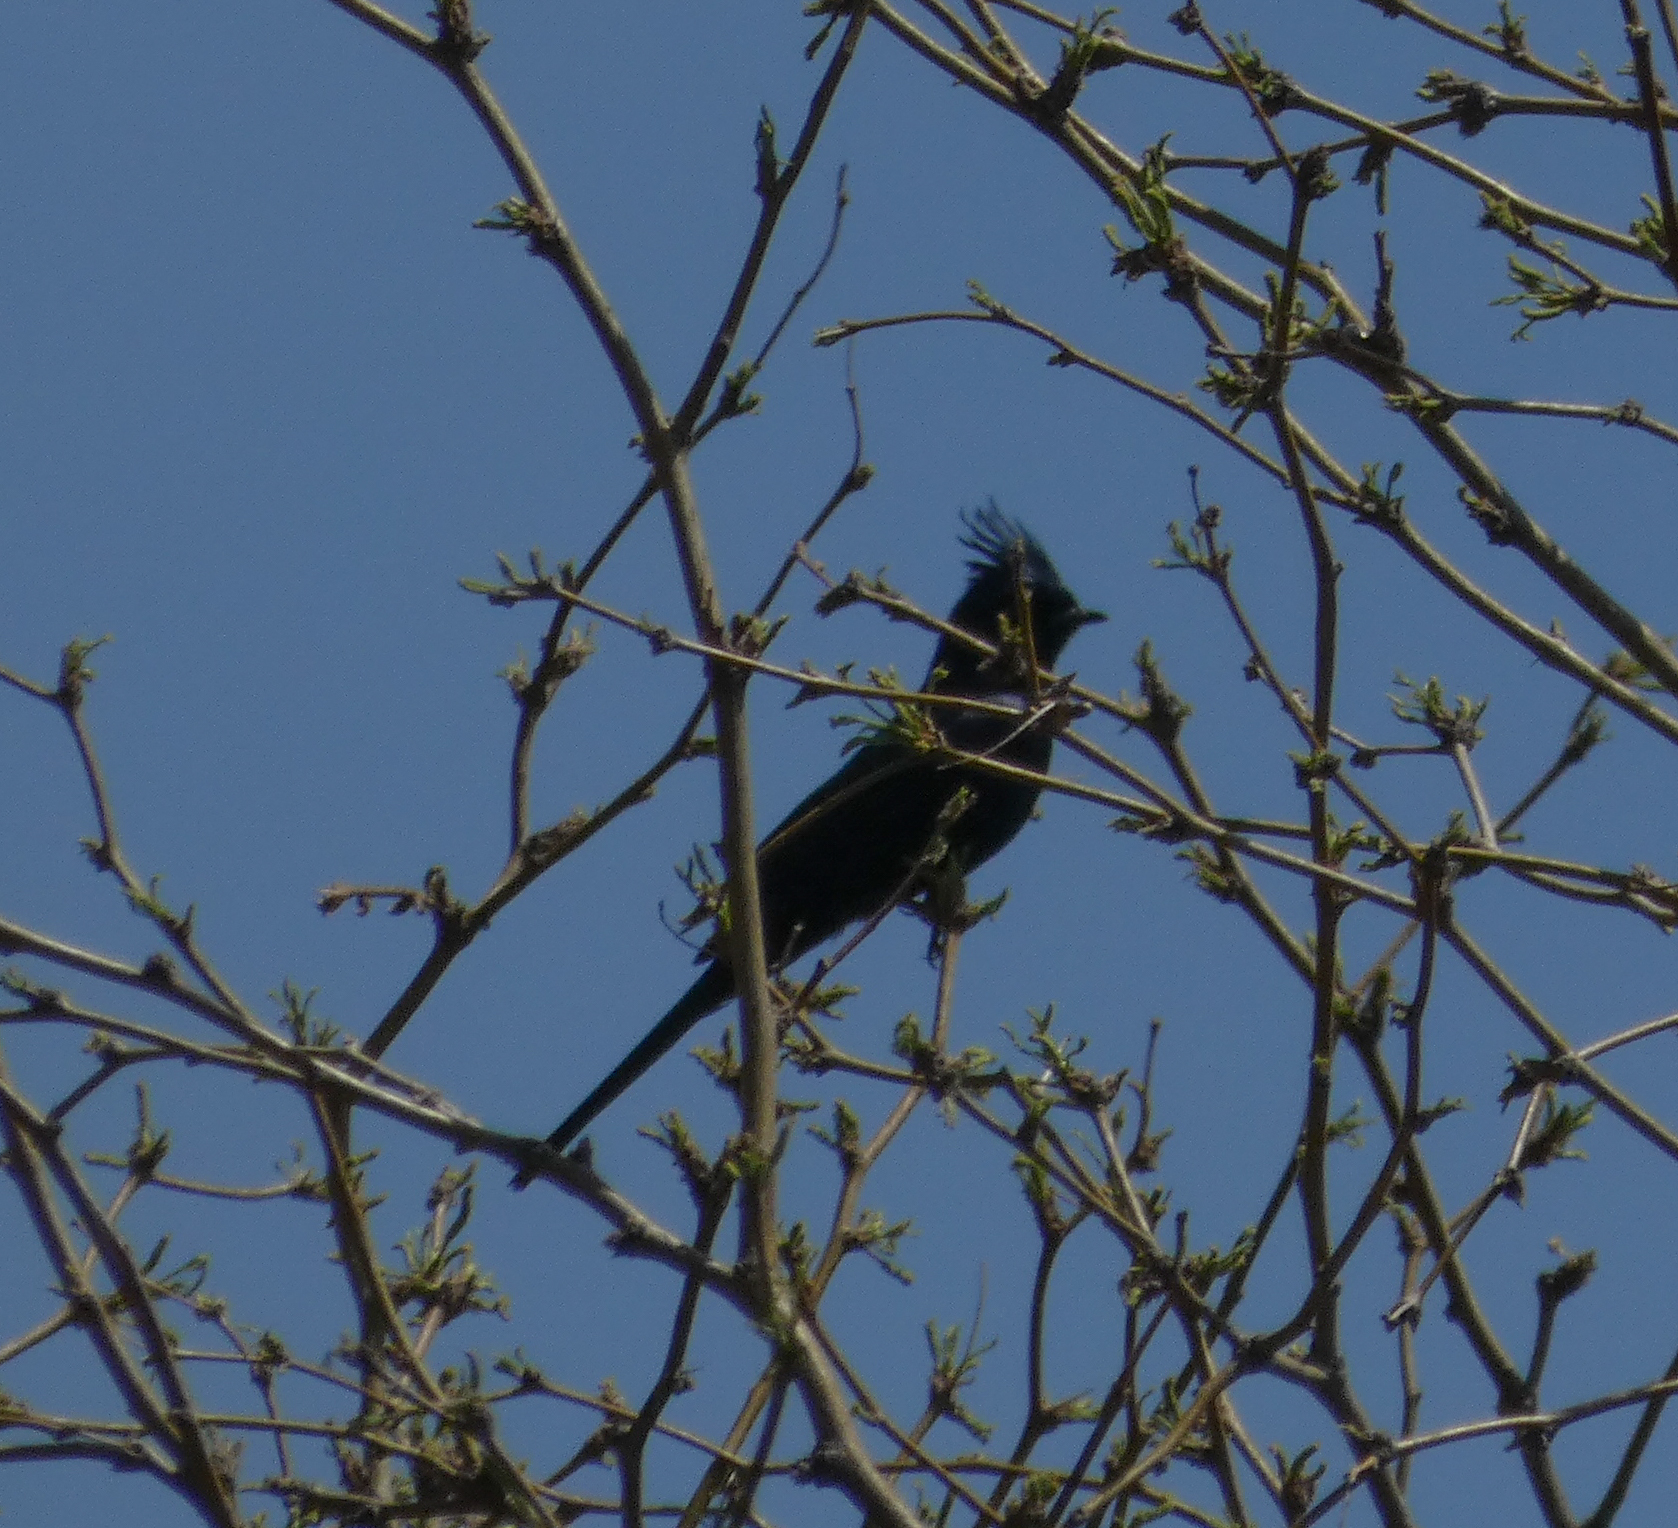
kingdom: Animalia
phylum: Chordata
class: Aves
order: Passeriformes
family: Ptilogonatidae
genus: Phainopepla
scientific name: Phainopepla nitens
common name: Phainopepla
